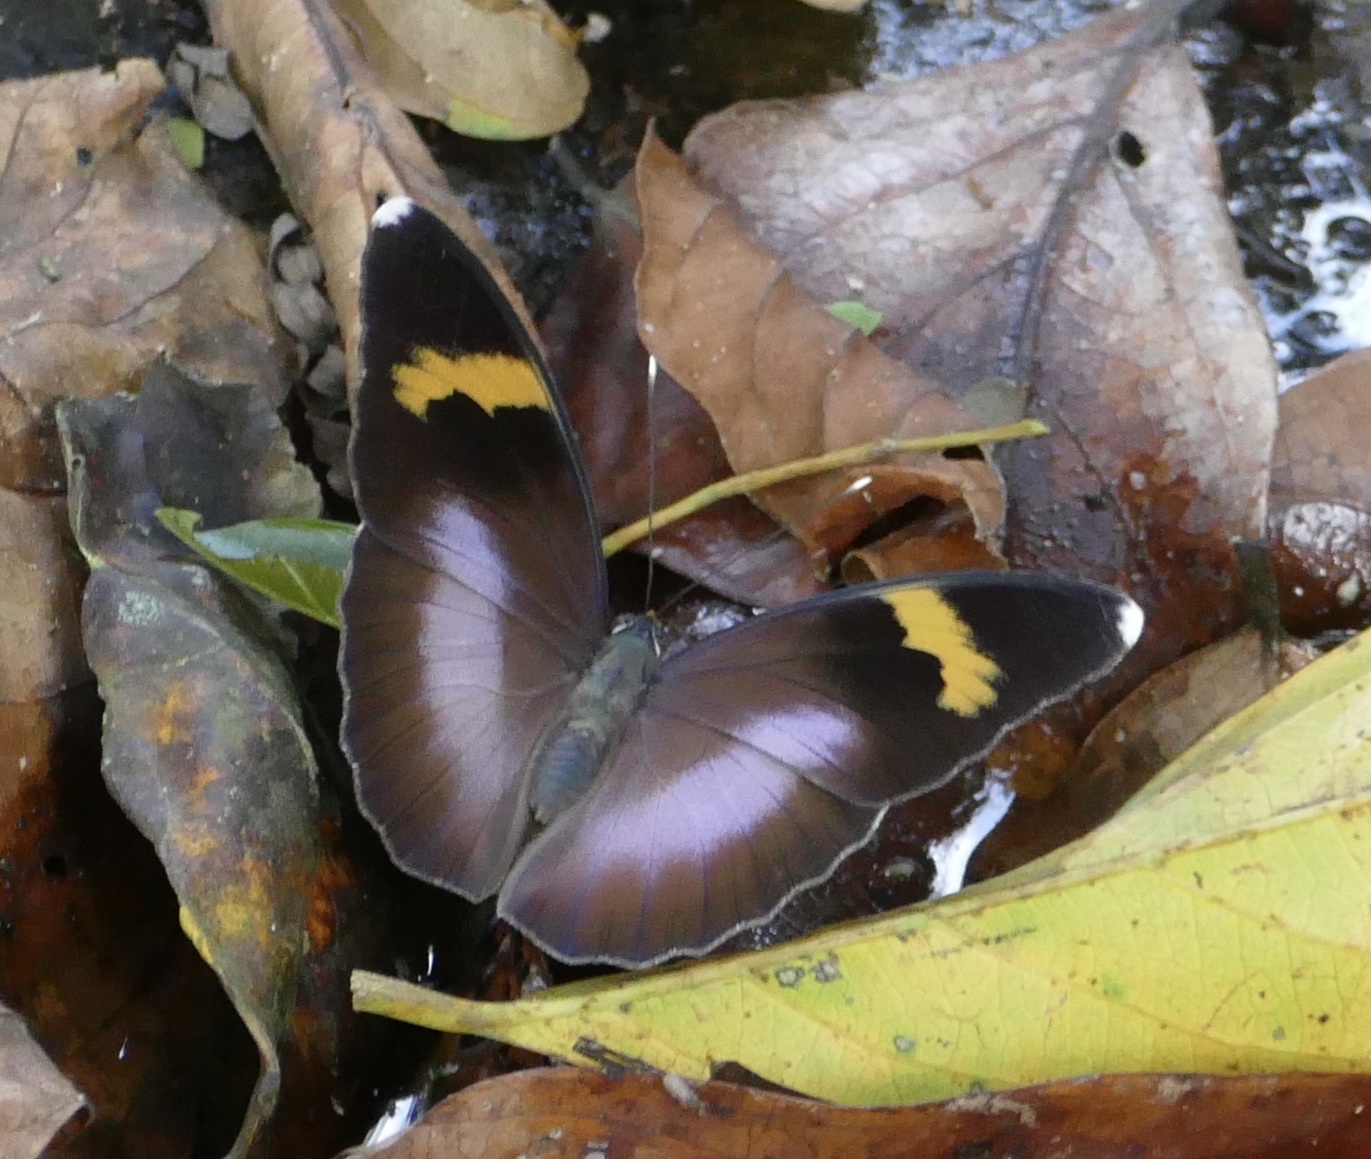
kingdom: Animalia
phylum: Arthropoda
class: Insecta
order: Lepidoptera
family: Nymphalidae
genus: Euphaedra
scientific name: Euphaedra medon
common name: Widespread forester
